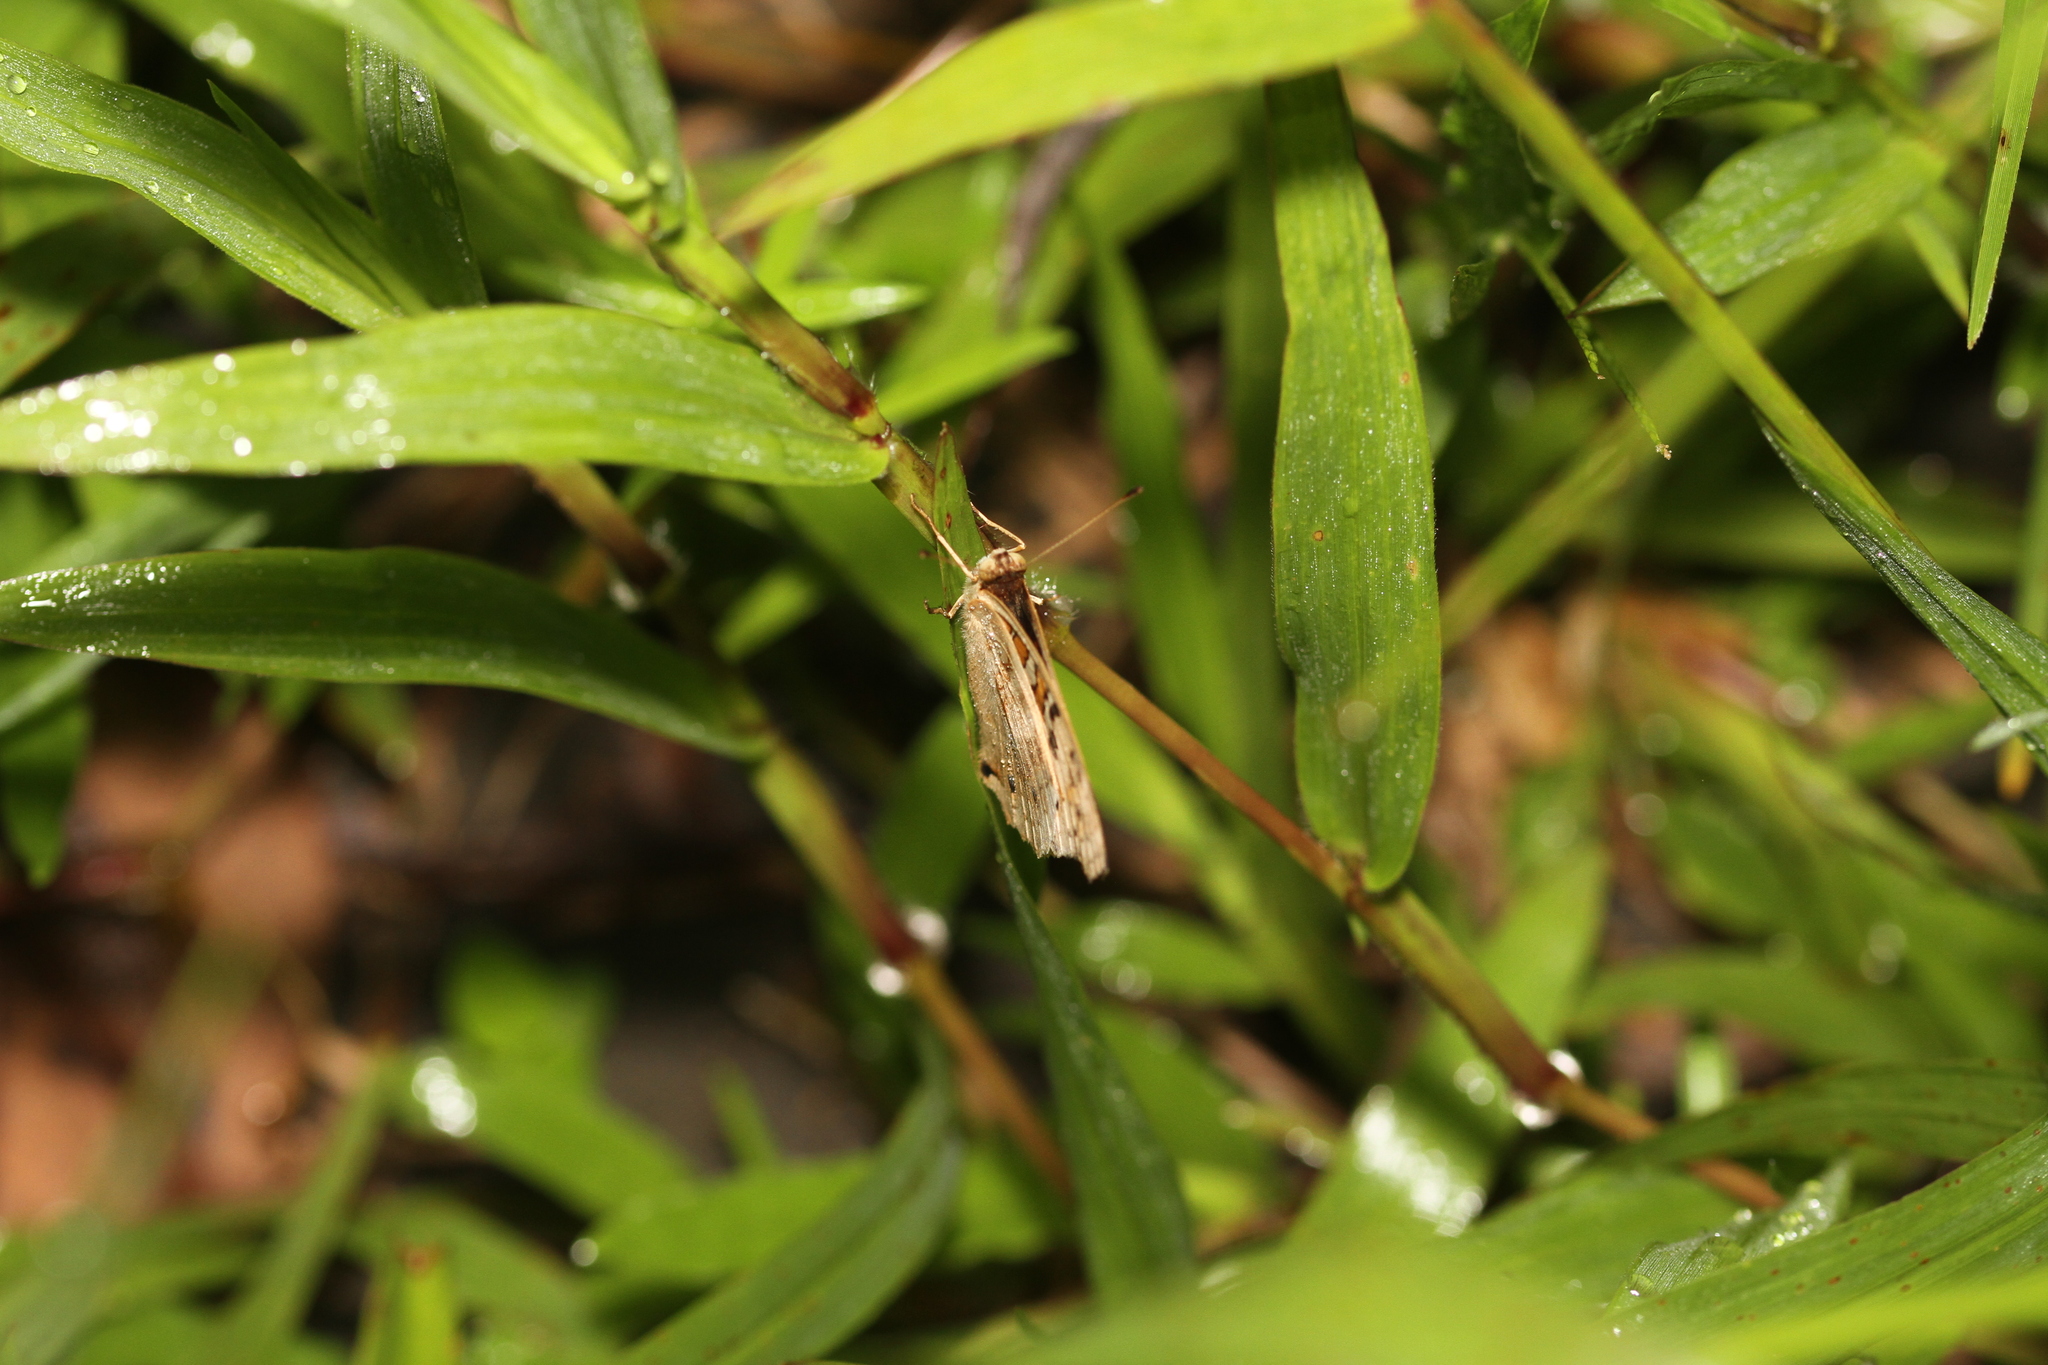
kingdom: Animalia
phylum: Arthropoda
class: Insecta
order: Lepidoptera
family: Nymphalidae
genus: Junonia
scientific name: Junonia orithya
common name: Blue pansy
